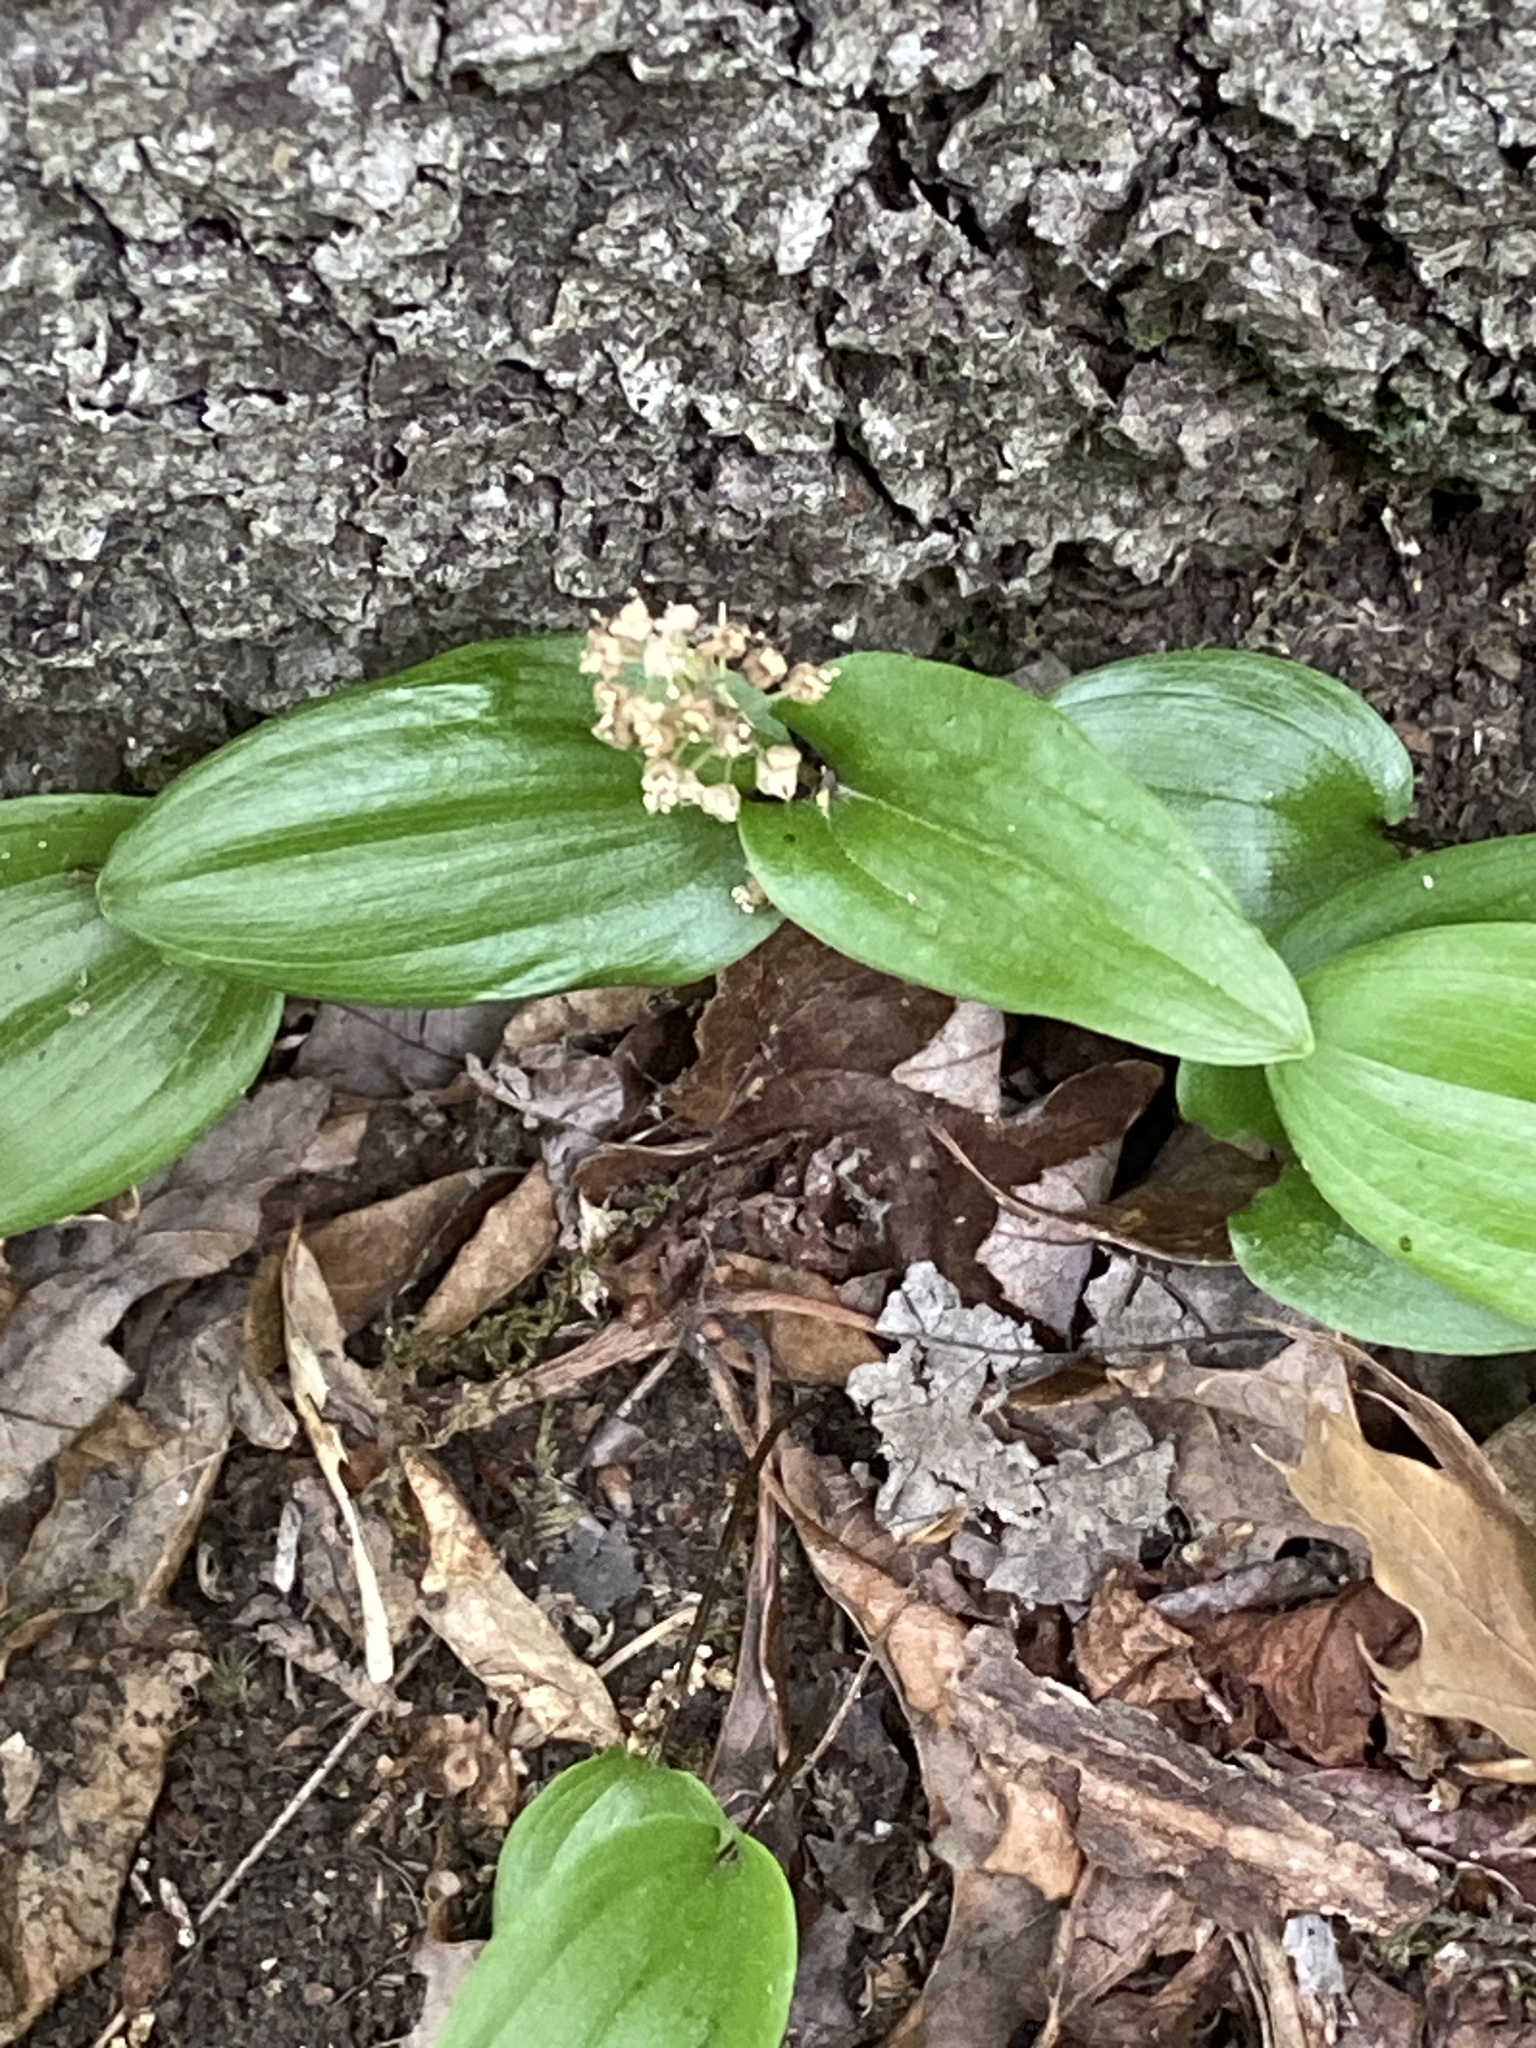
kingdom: Plantae
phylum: Tracheophyta
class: Liliopsida
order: Asparagales
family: Asparagaceae
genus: Maianthemum
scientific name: Maianthemum canadense
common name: False lily-of-the-valley
